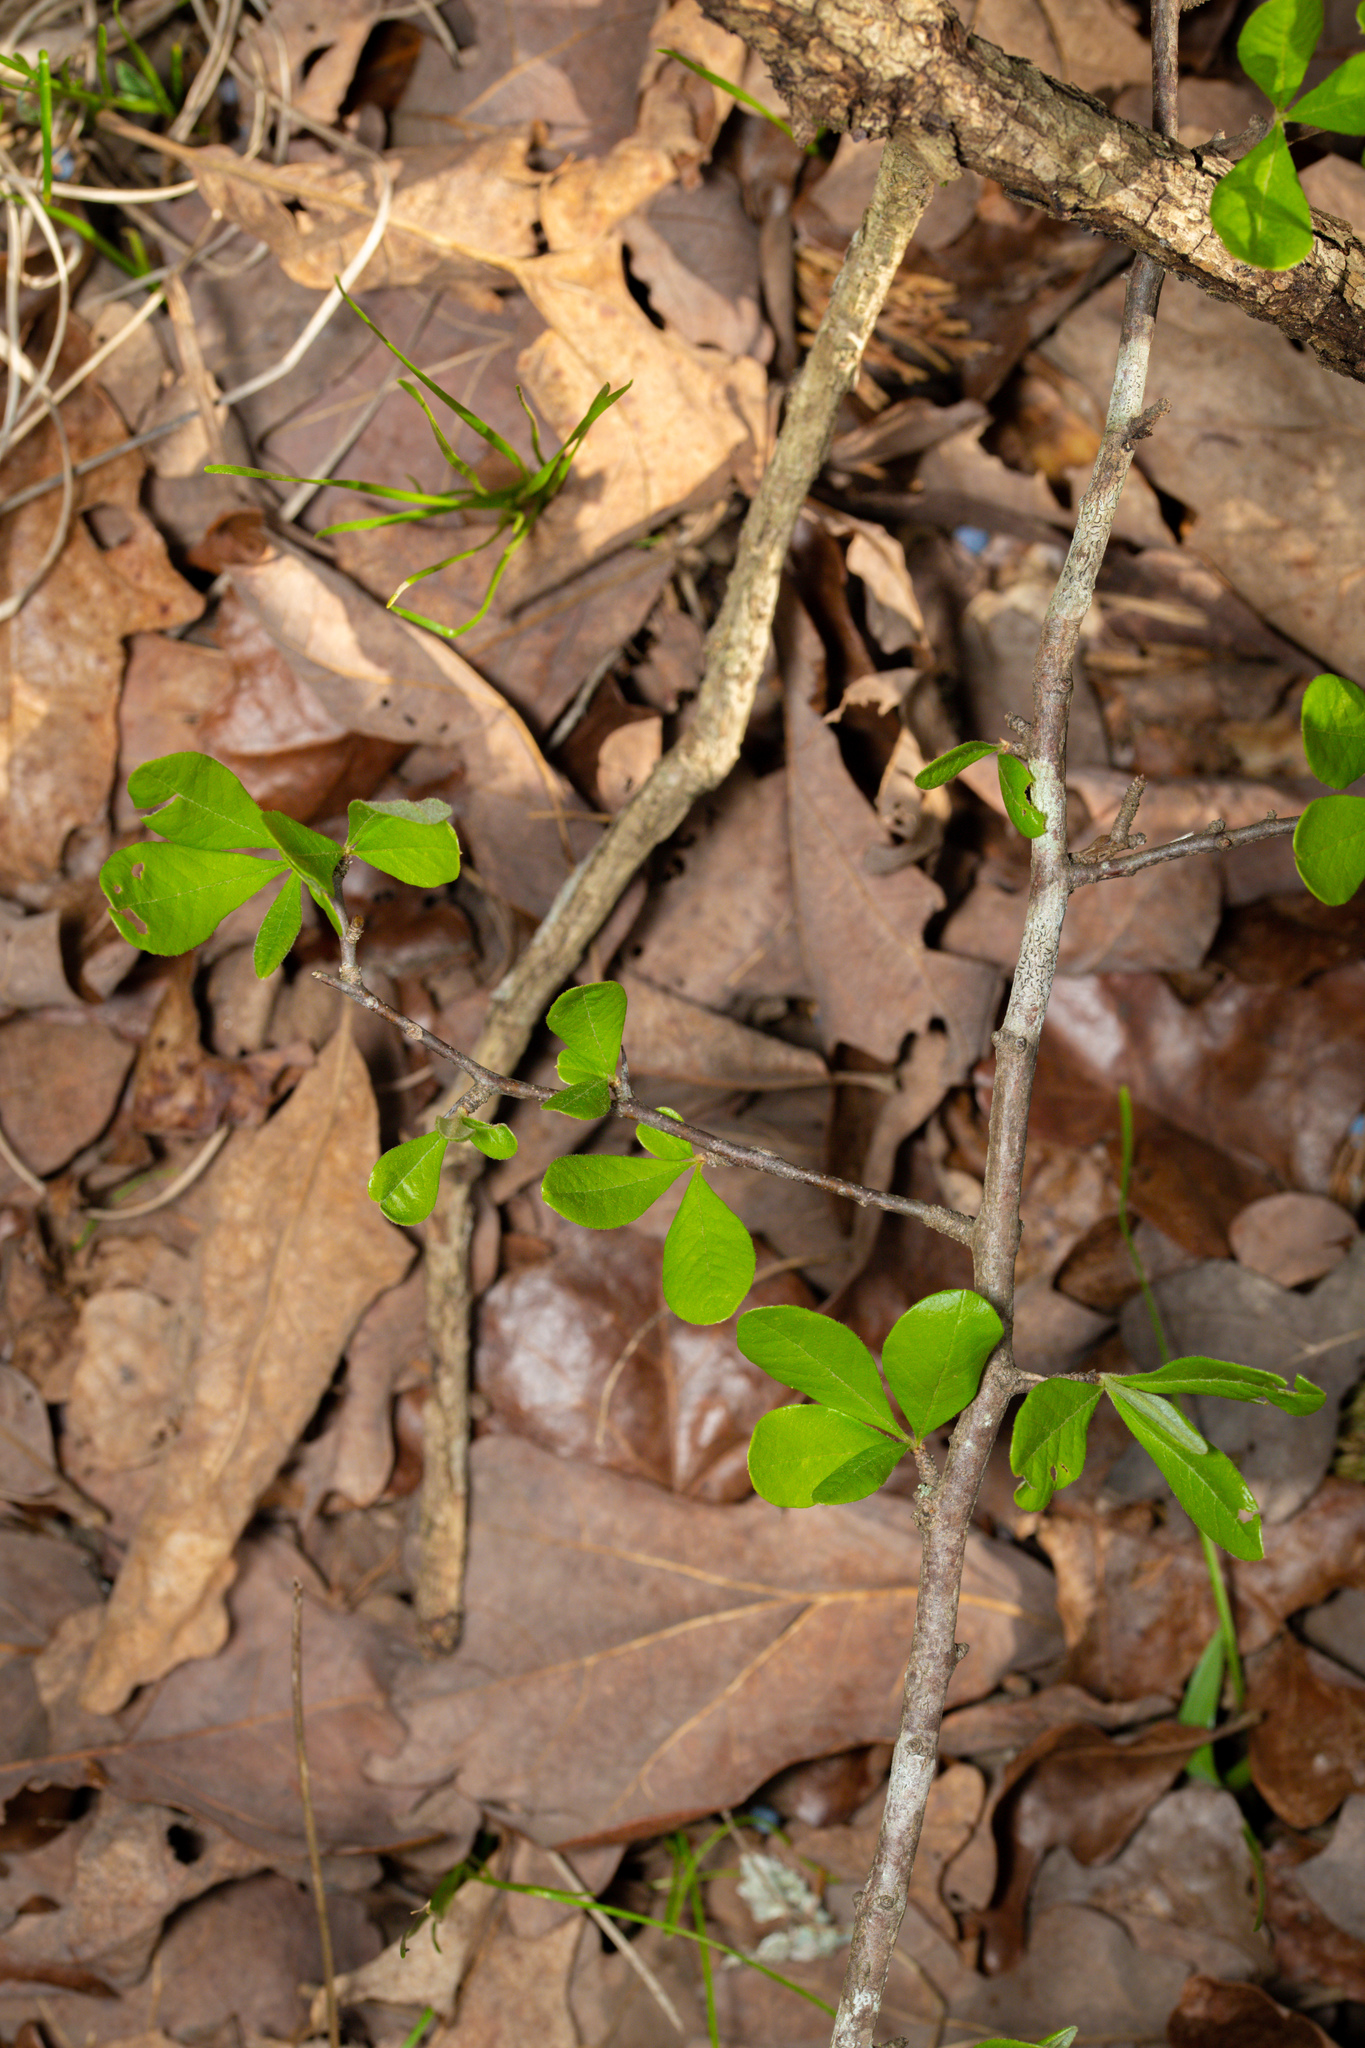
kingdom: Plantae
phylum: Tracheophyta
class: Magnoliopsida
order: Ericales
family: Sapotaceae
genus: Sideroxylon
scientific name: Sideroxylon lanuginosum
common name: Chittamwood
